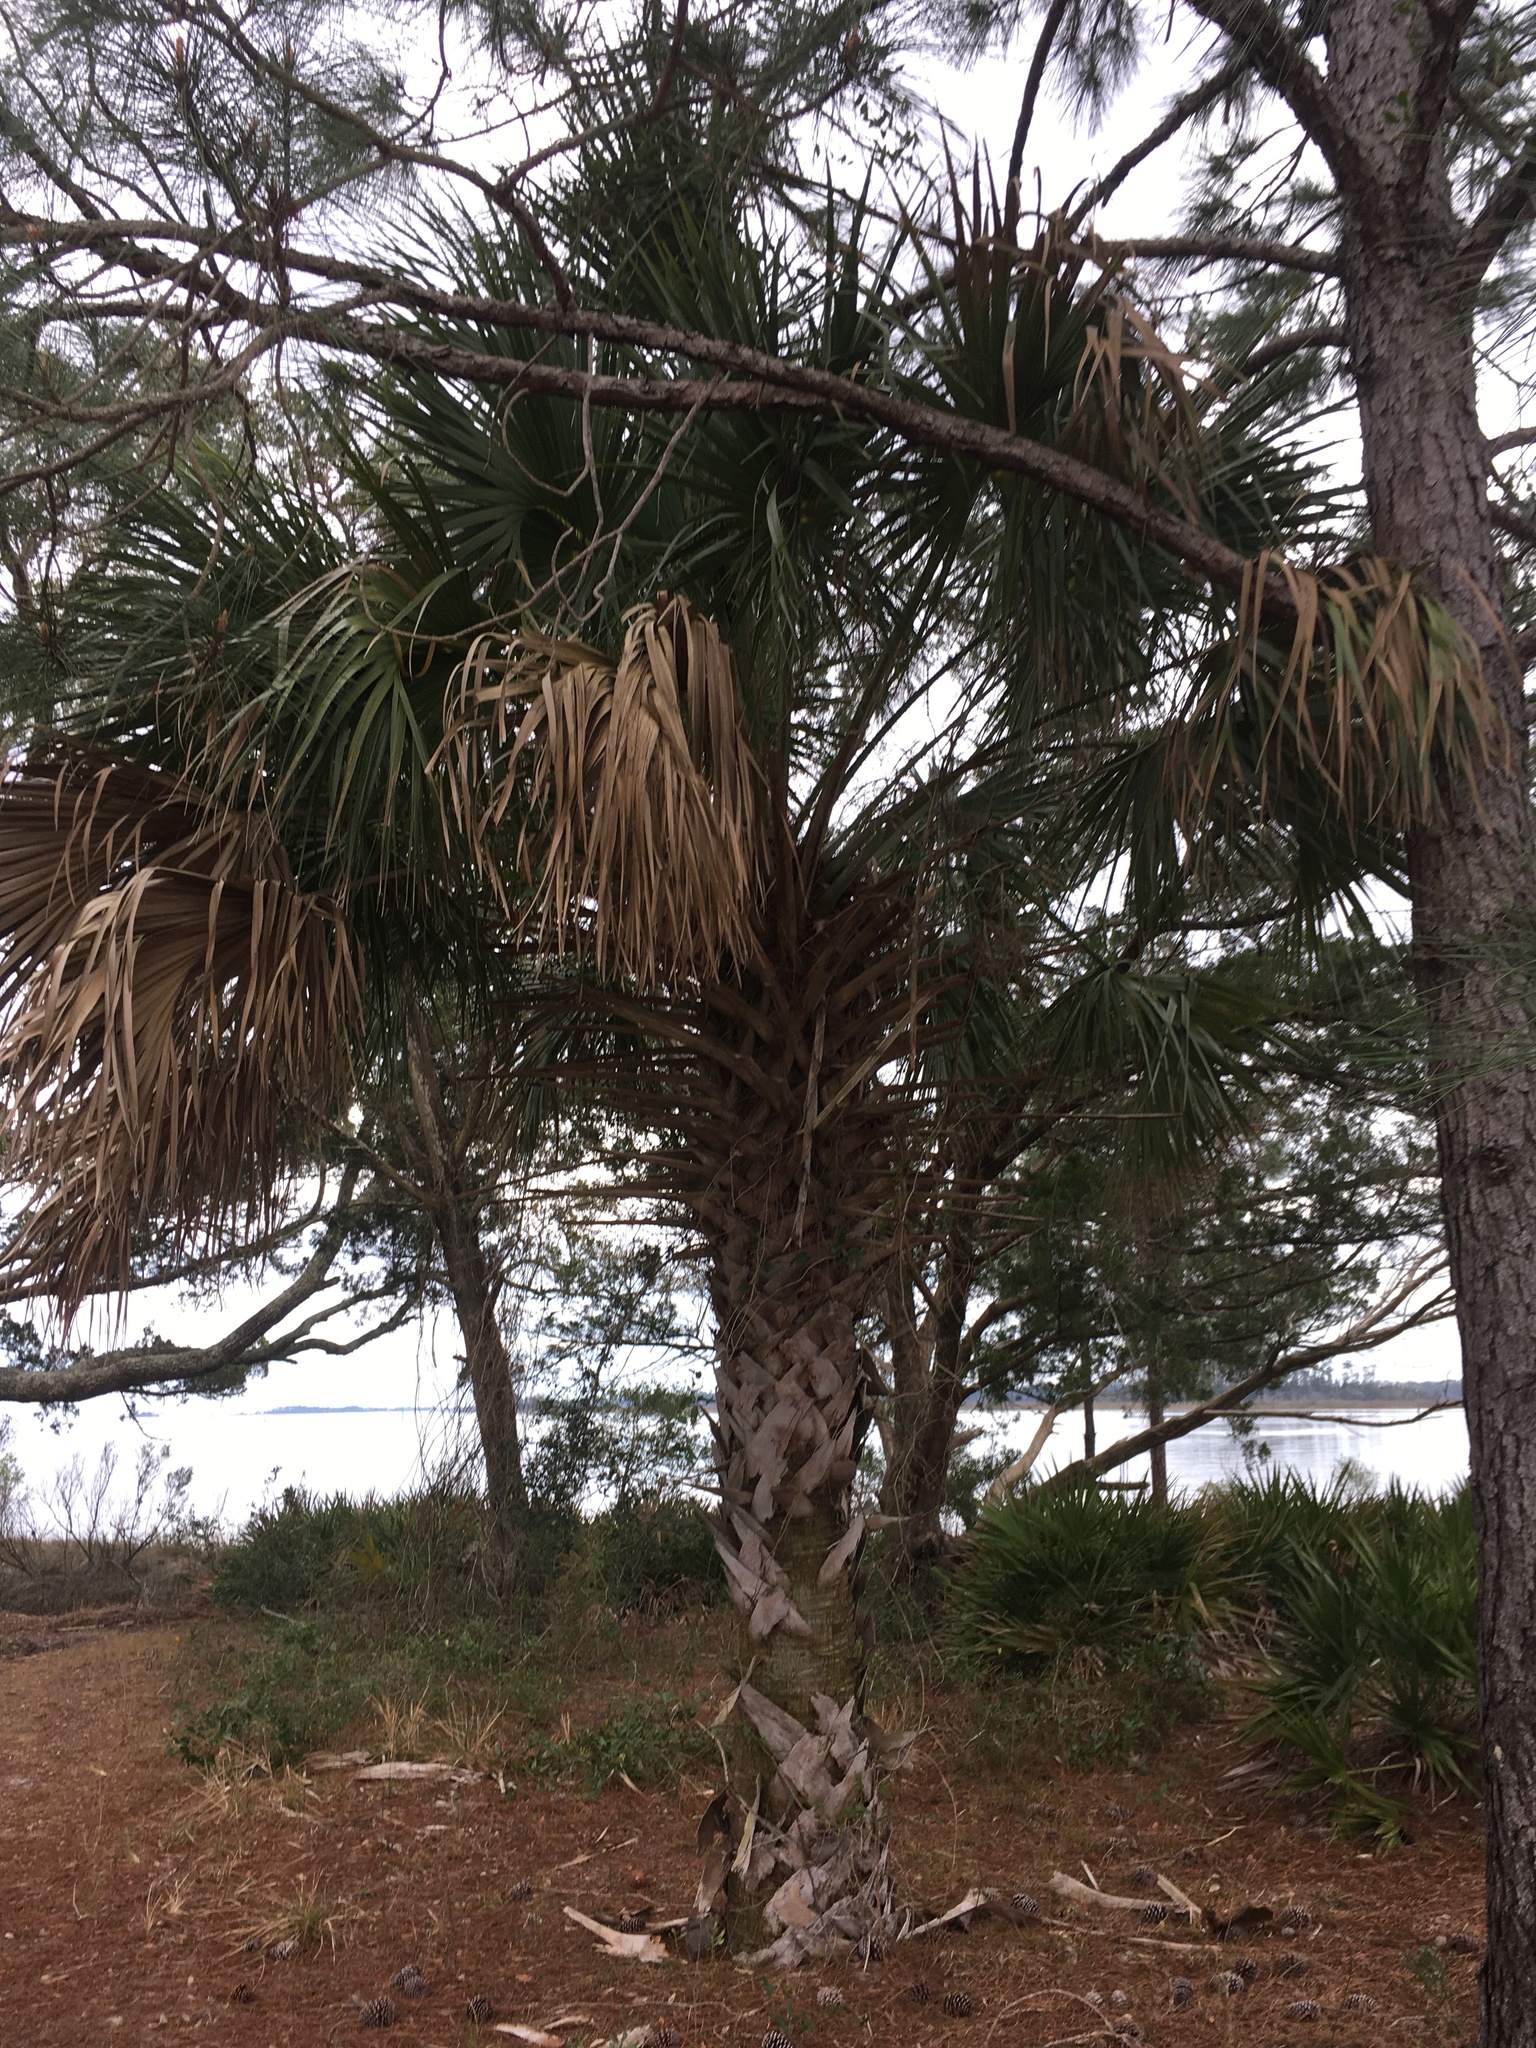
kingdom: Plantae
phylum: Tracheophyta
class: Liliopsida
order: Arecales
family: Arecaceae
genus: Sabal
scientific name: Sabal palmetto
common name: Blue palmetto
